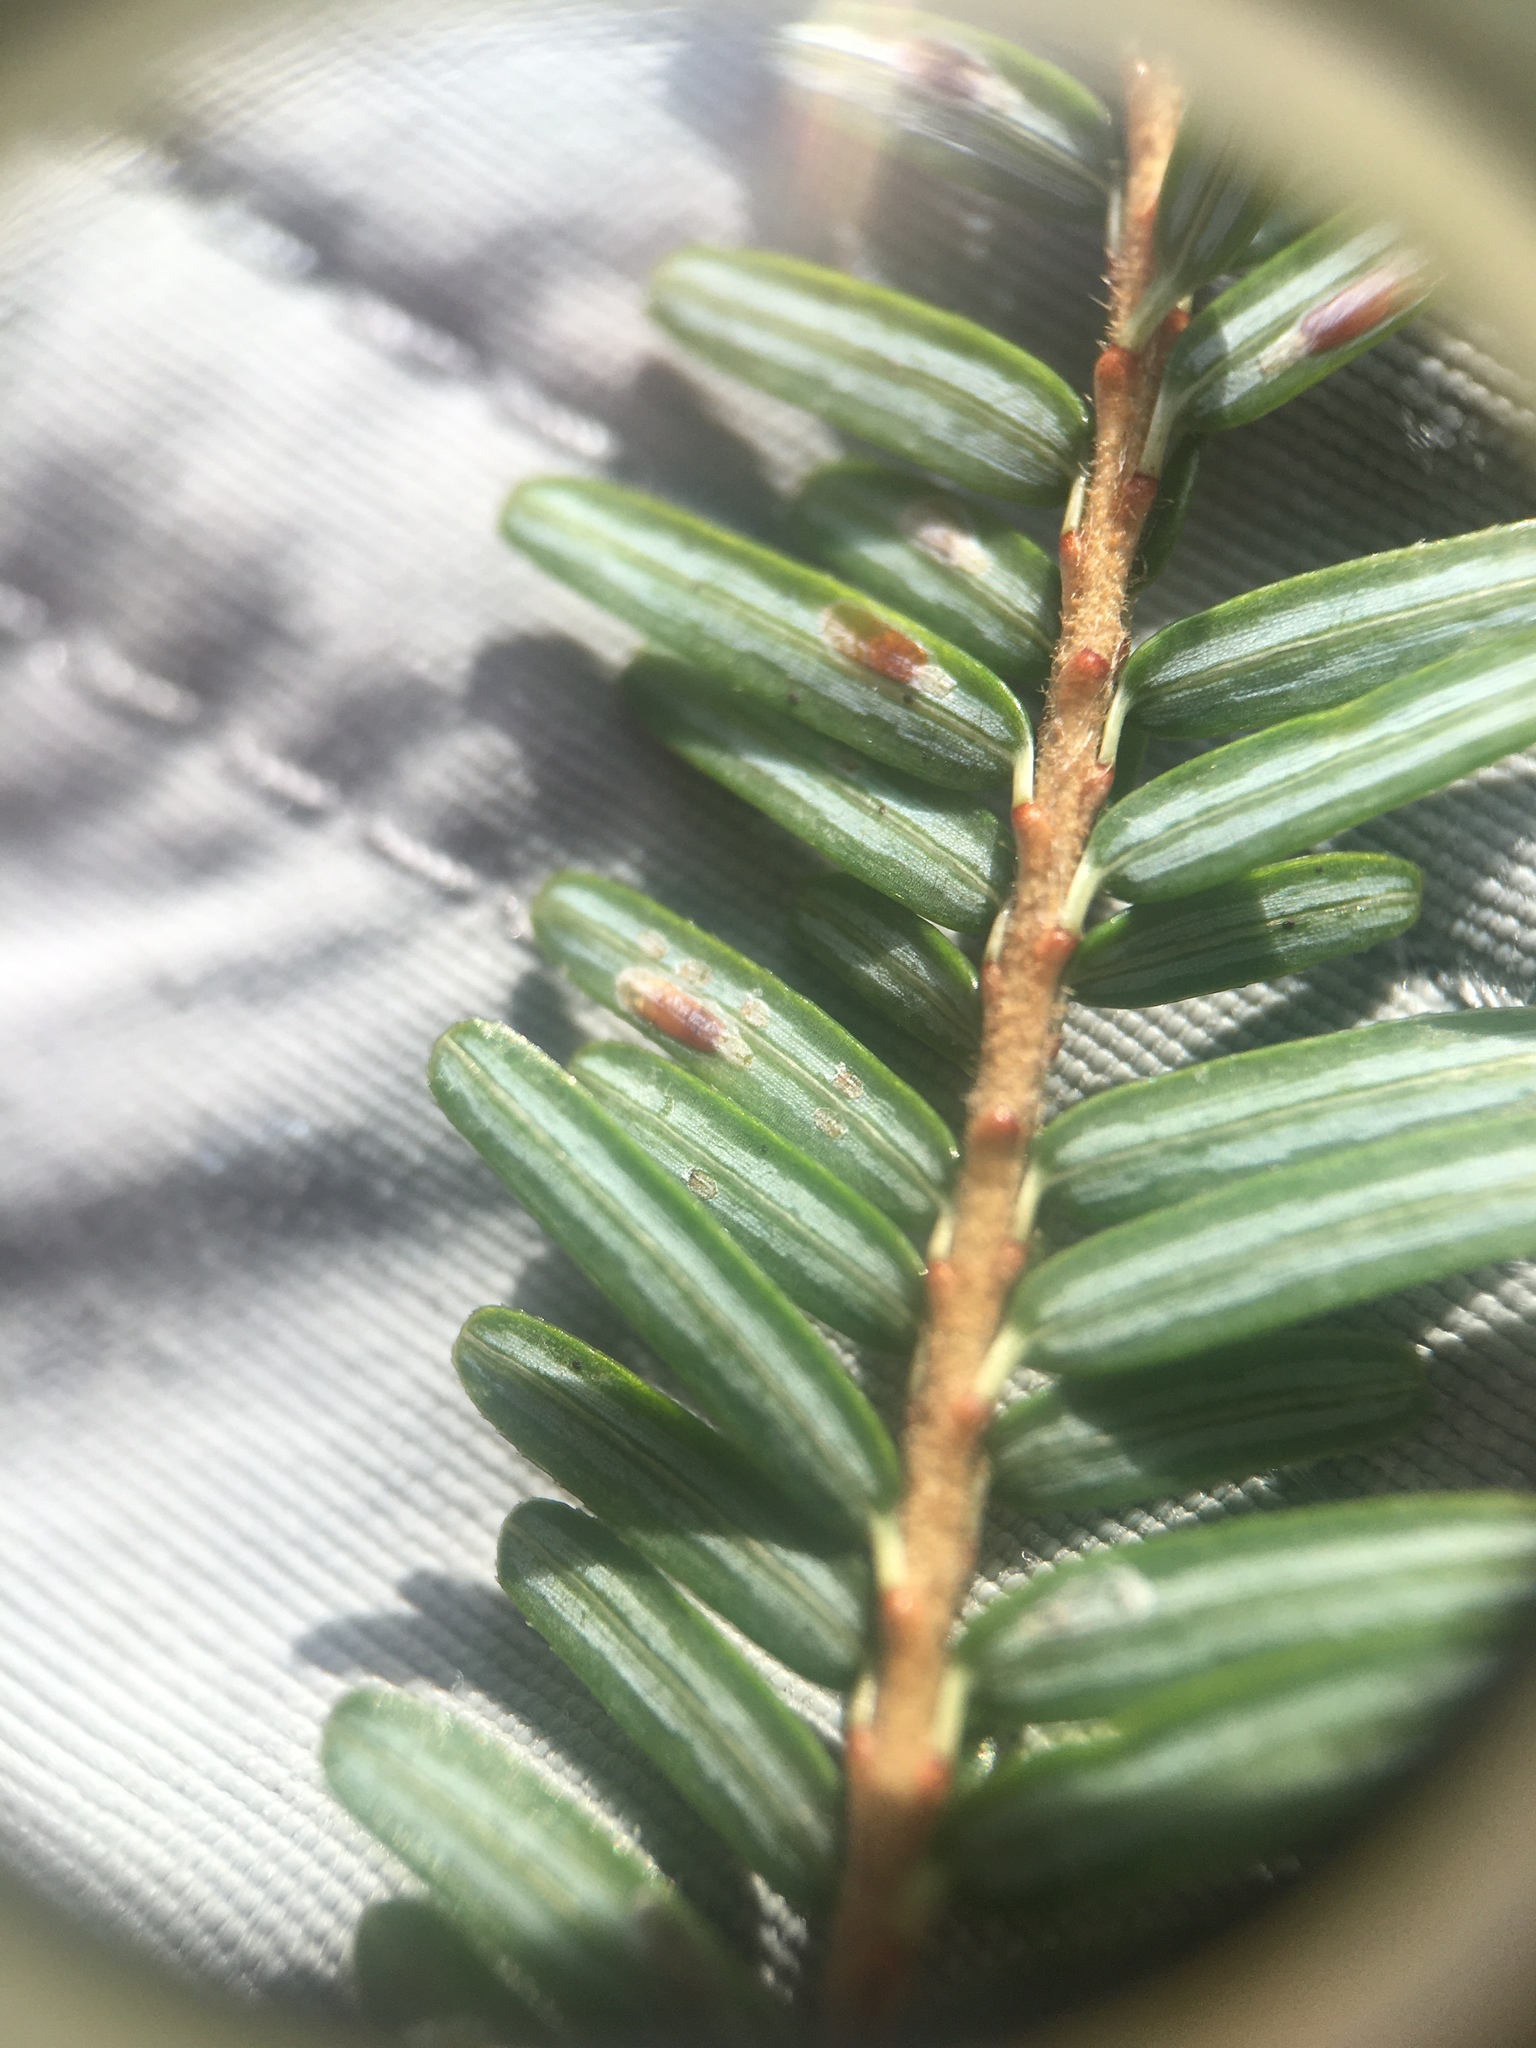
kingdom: Animalia
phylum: Arthropoda
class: Insecta
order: Hemiptera
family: Diaspididae
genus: Fiorinia
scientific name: Fiorinia externa
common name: Elongate hemlock scale
